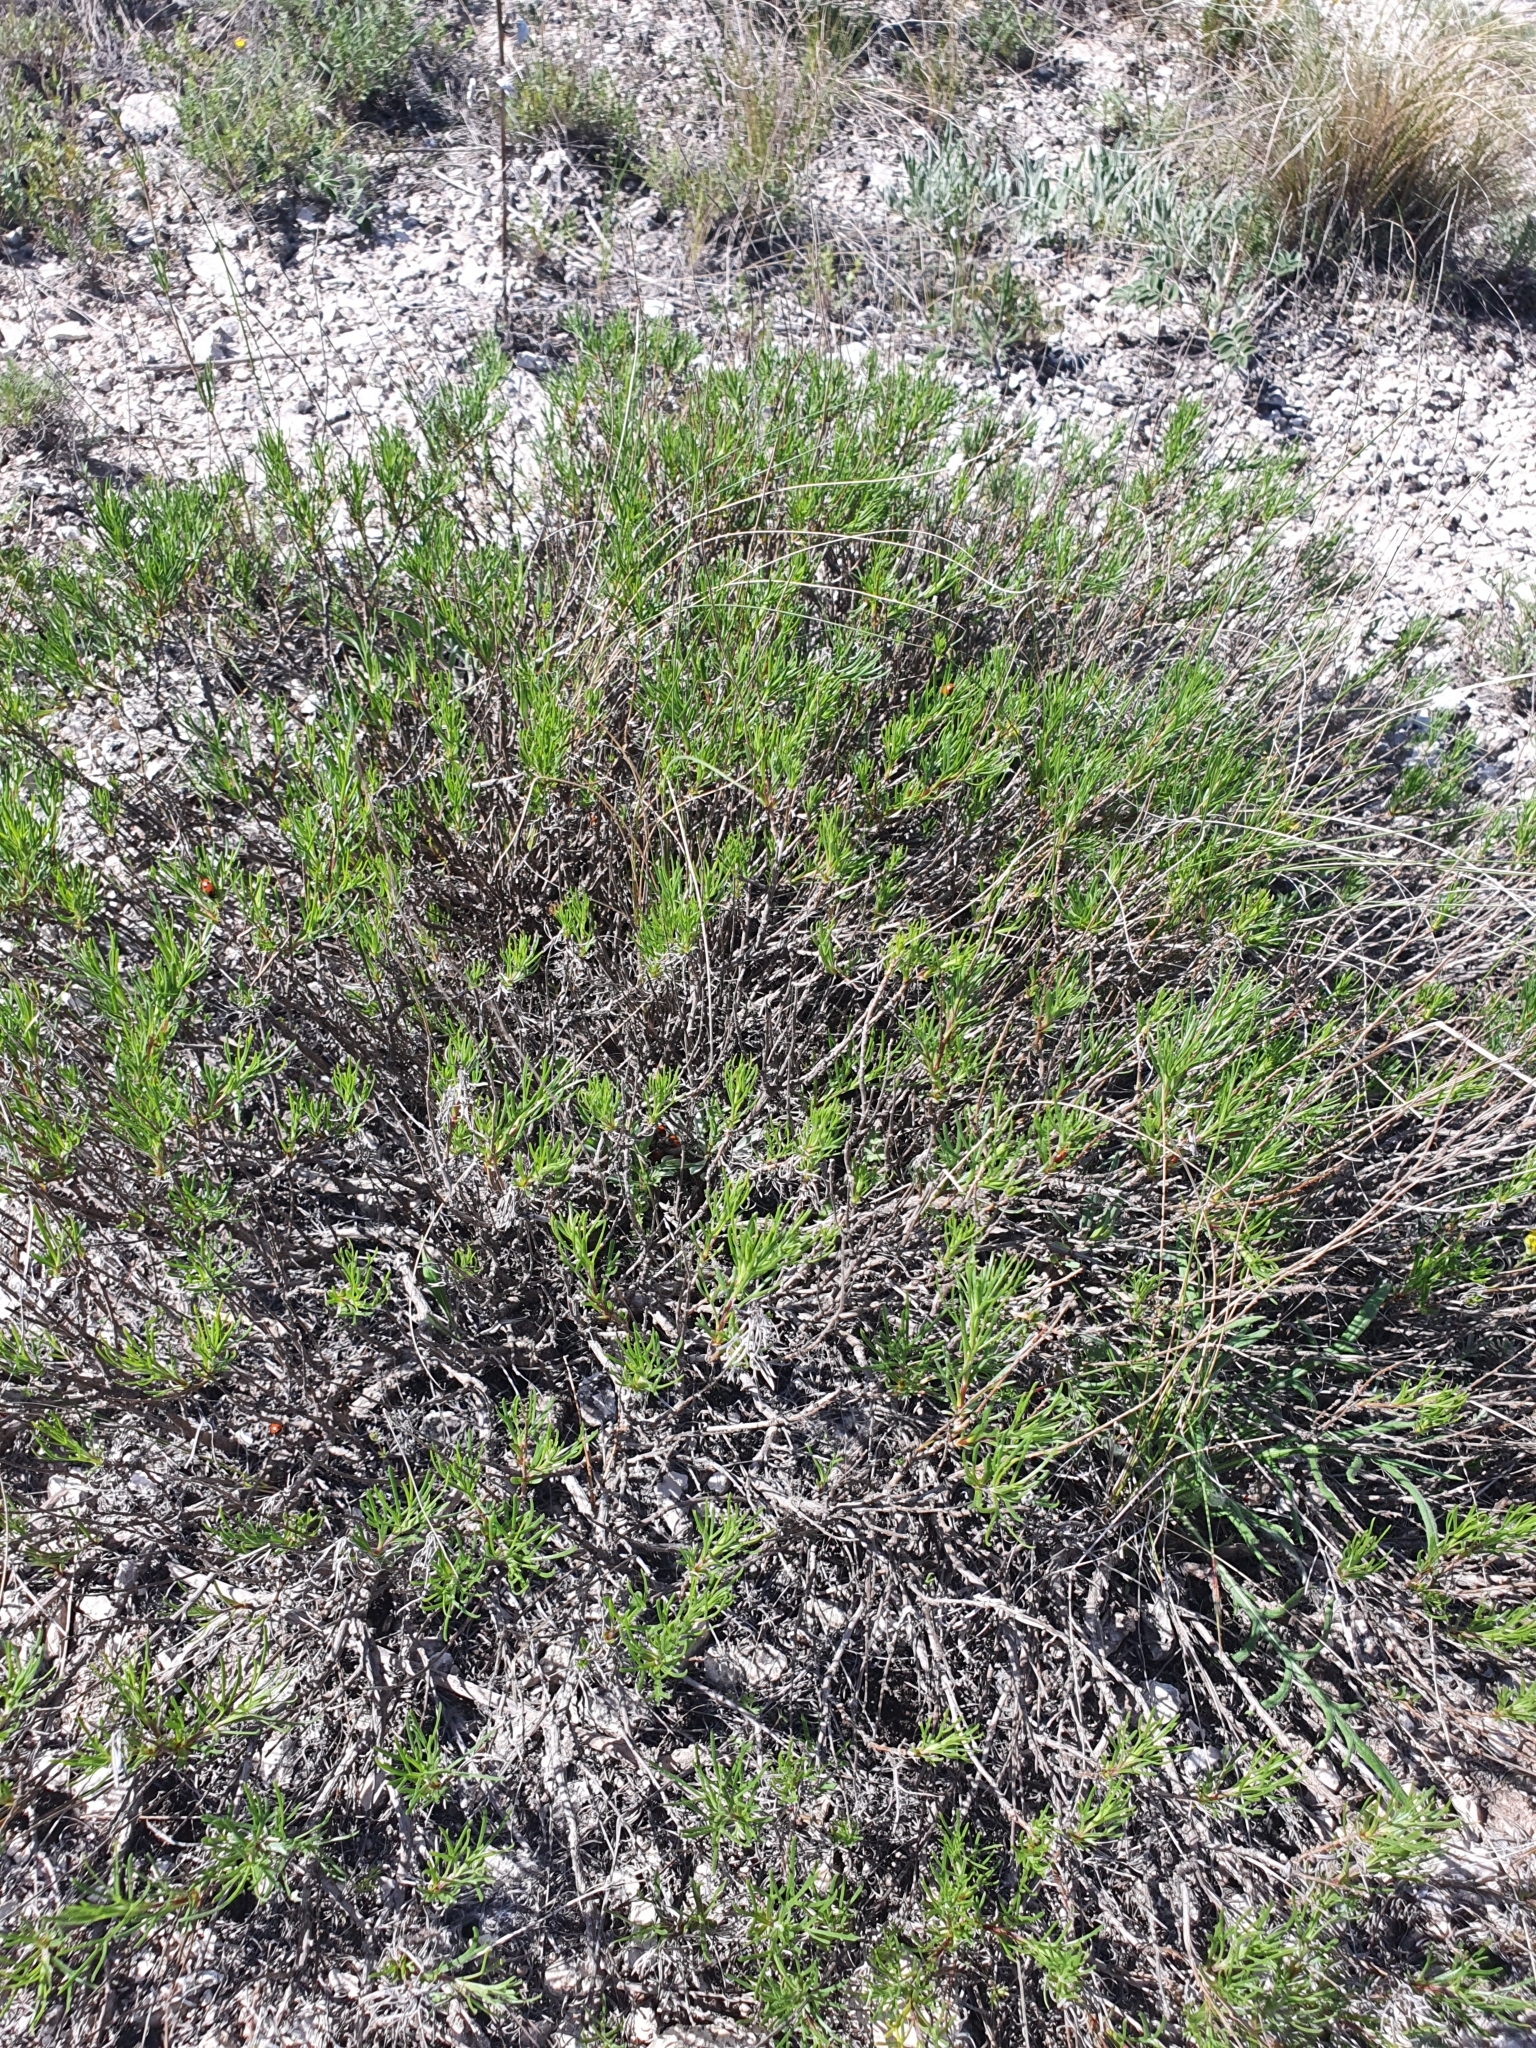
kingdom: Plantae
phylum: Tracheophyta
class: Magnoliopsida
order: Asterales
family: Asteraceae
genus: Artemisia
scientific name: Artemisia salsoloides
